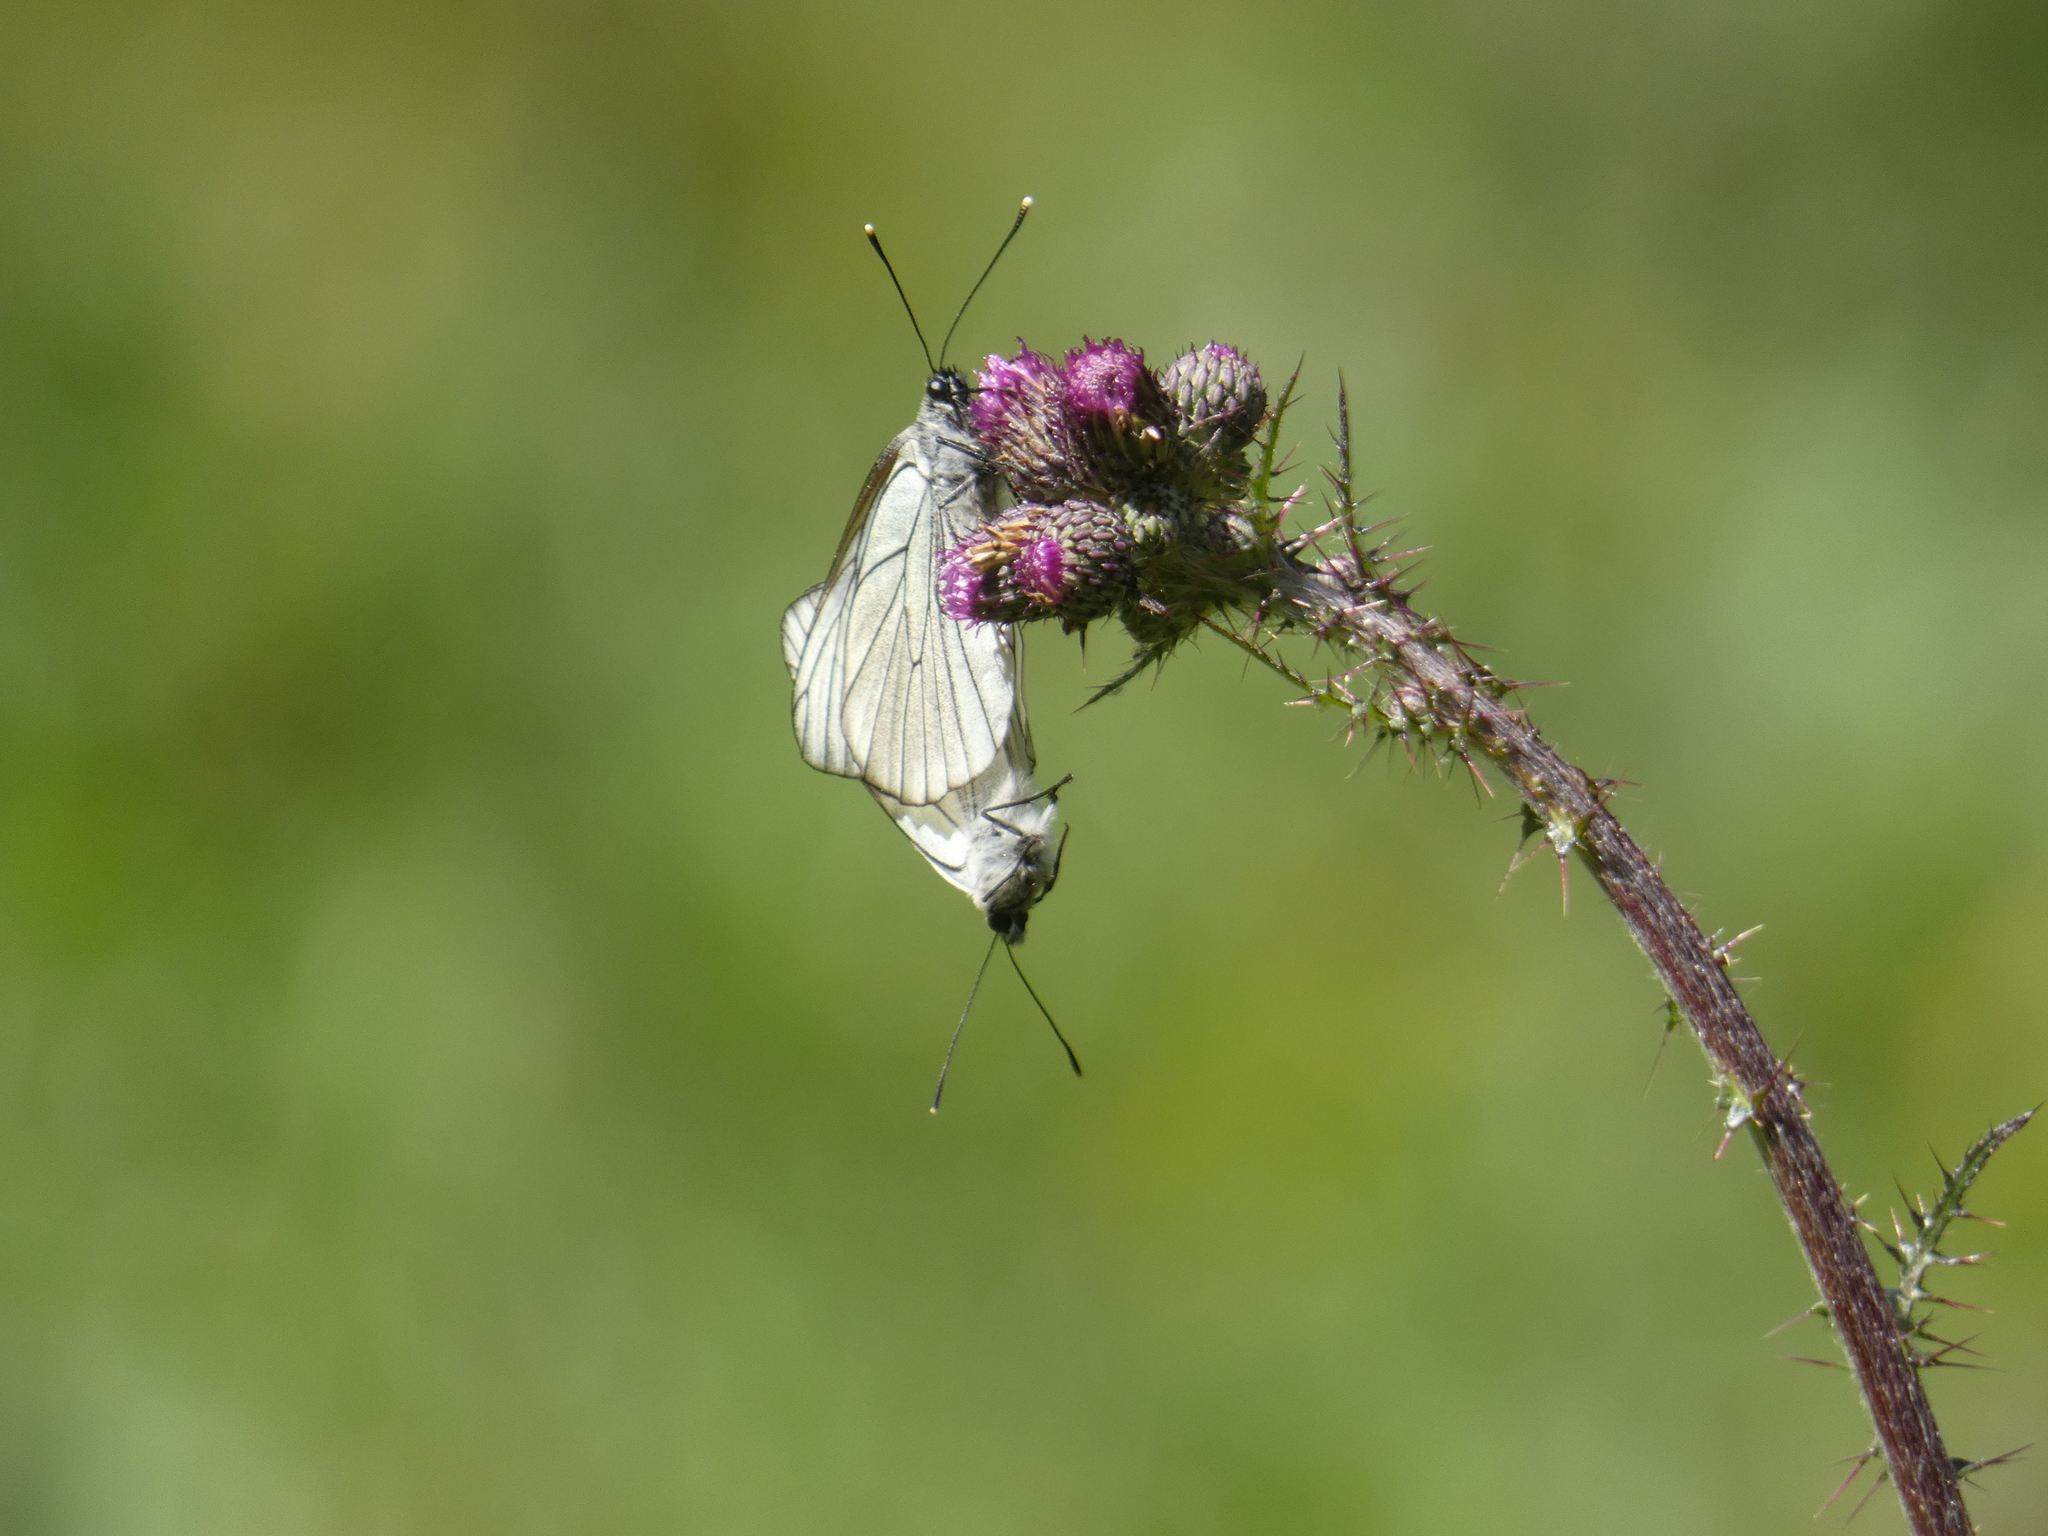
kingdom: Animalia
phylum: Arthropoda
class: Insecta
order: Lepidoptera
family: Pieridae
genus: Aporia
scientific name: Aporia crataegi
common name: Black-veined white
